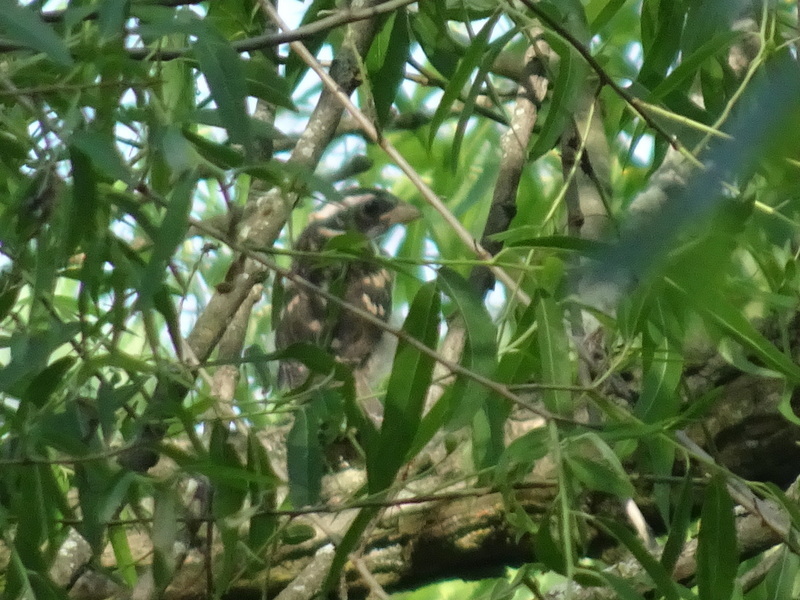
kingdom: Animalia
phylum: Chordata
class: Aves
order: Passeriformes
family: Cardinalidae
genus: Pheucticus
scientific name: Pheucticus ludovicianus
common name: Rose-breasted grosbeak
